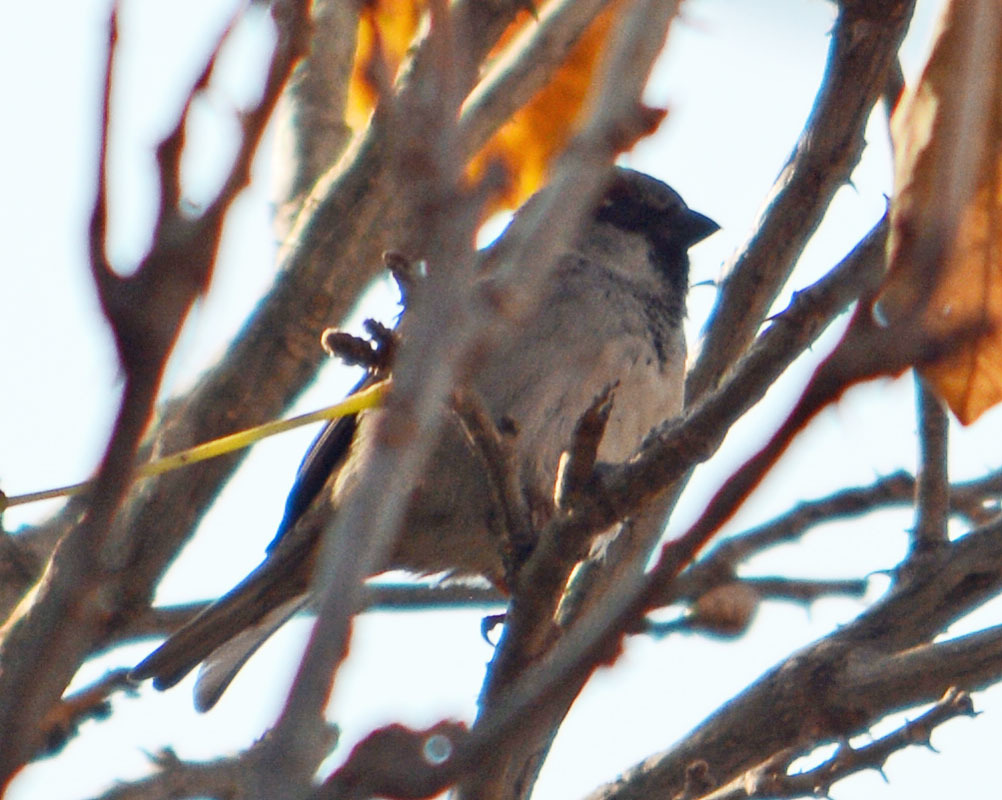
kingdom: Animalia
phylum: Chordata
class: Aves
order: Passeriformes
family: Passeridae
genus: Passer
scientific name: Passer domesticus
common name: House sparrow
